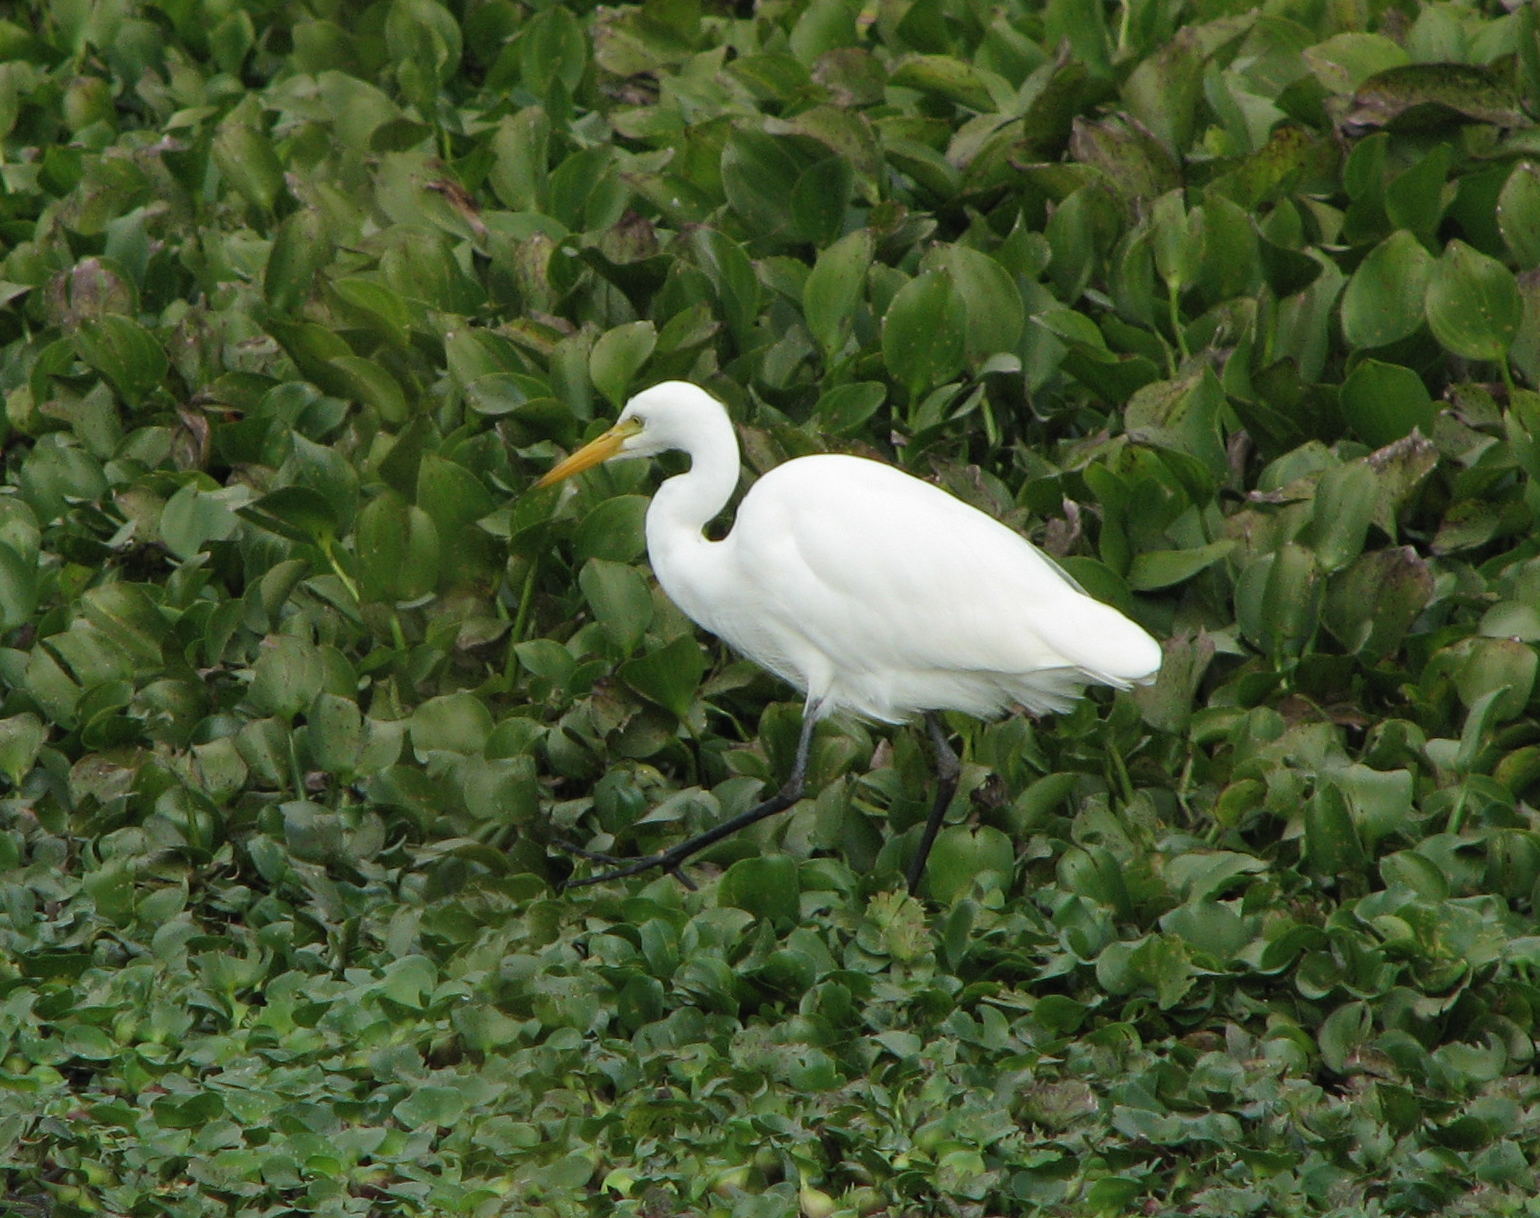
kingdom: Animalia
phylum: Chordata
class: Aves
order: Pelecaniformes
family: Ardeidae
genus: Egretta
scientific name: Egretta intermedia
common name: Intermediate egret
